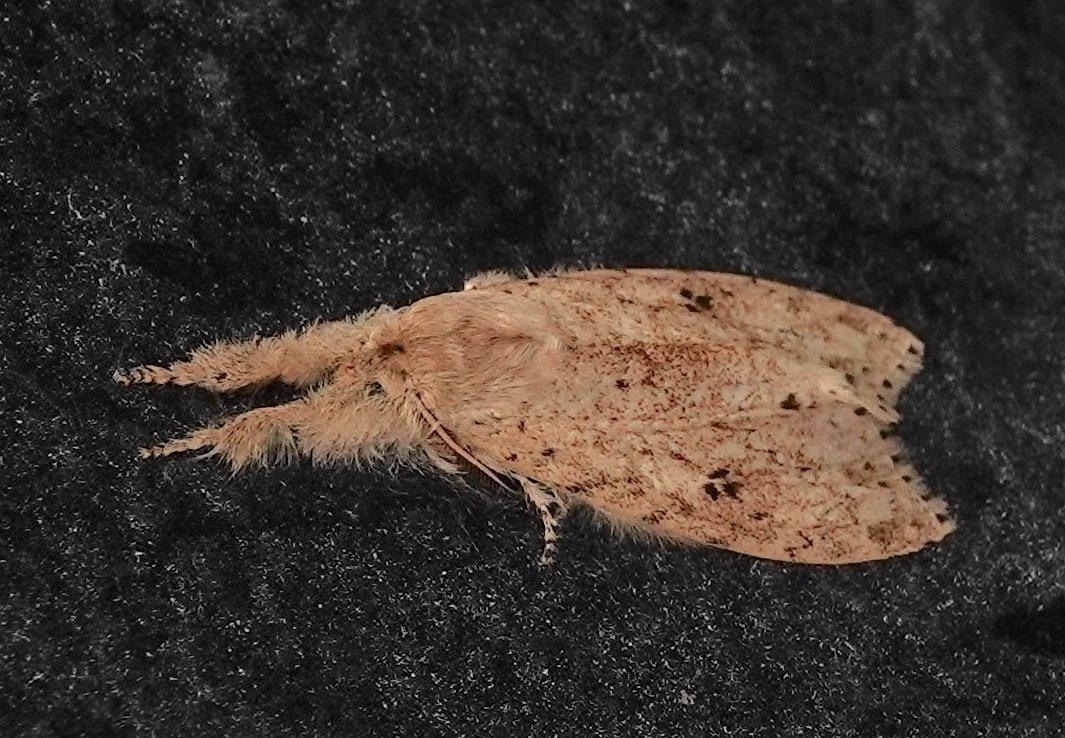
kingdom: Animalia
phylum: Arthropoda
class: Insecta
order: Lepidoptera
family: Erebidae
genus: Calliteara
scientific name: Calliteara angulata
